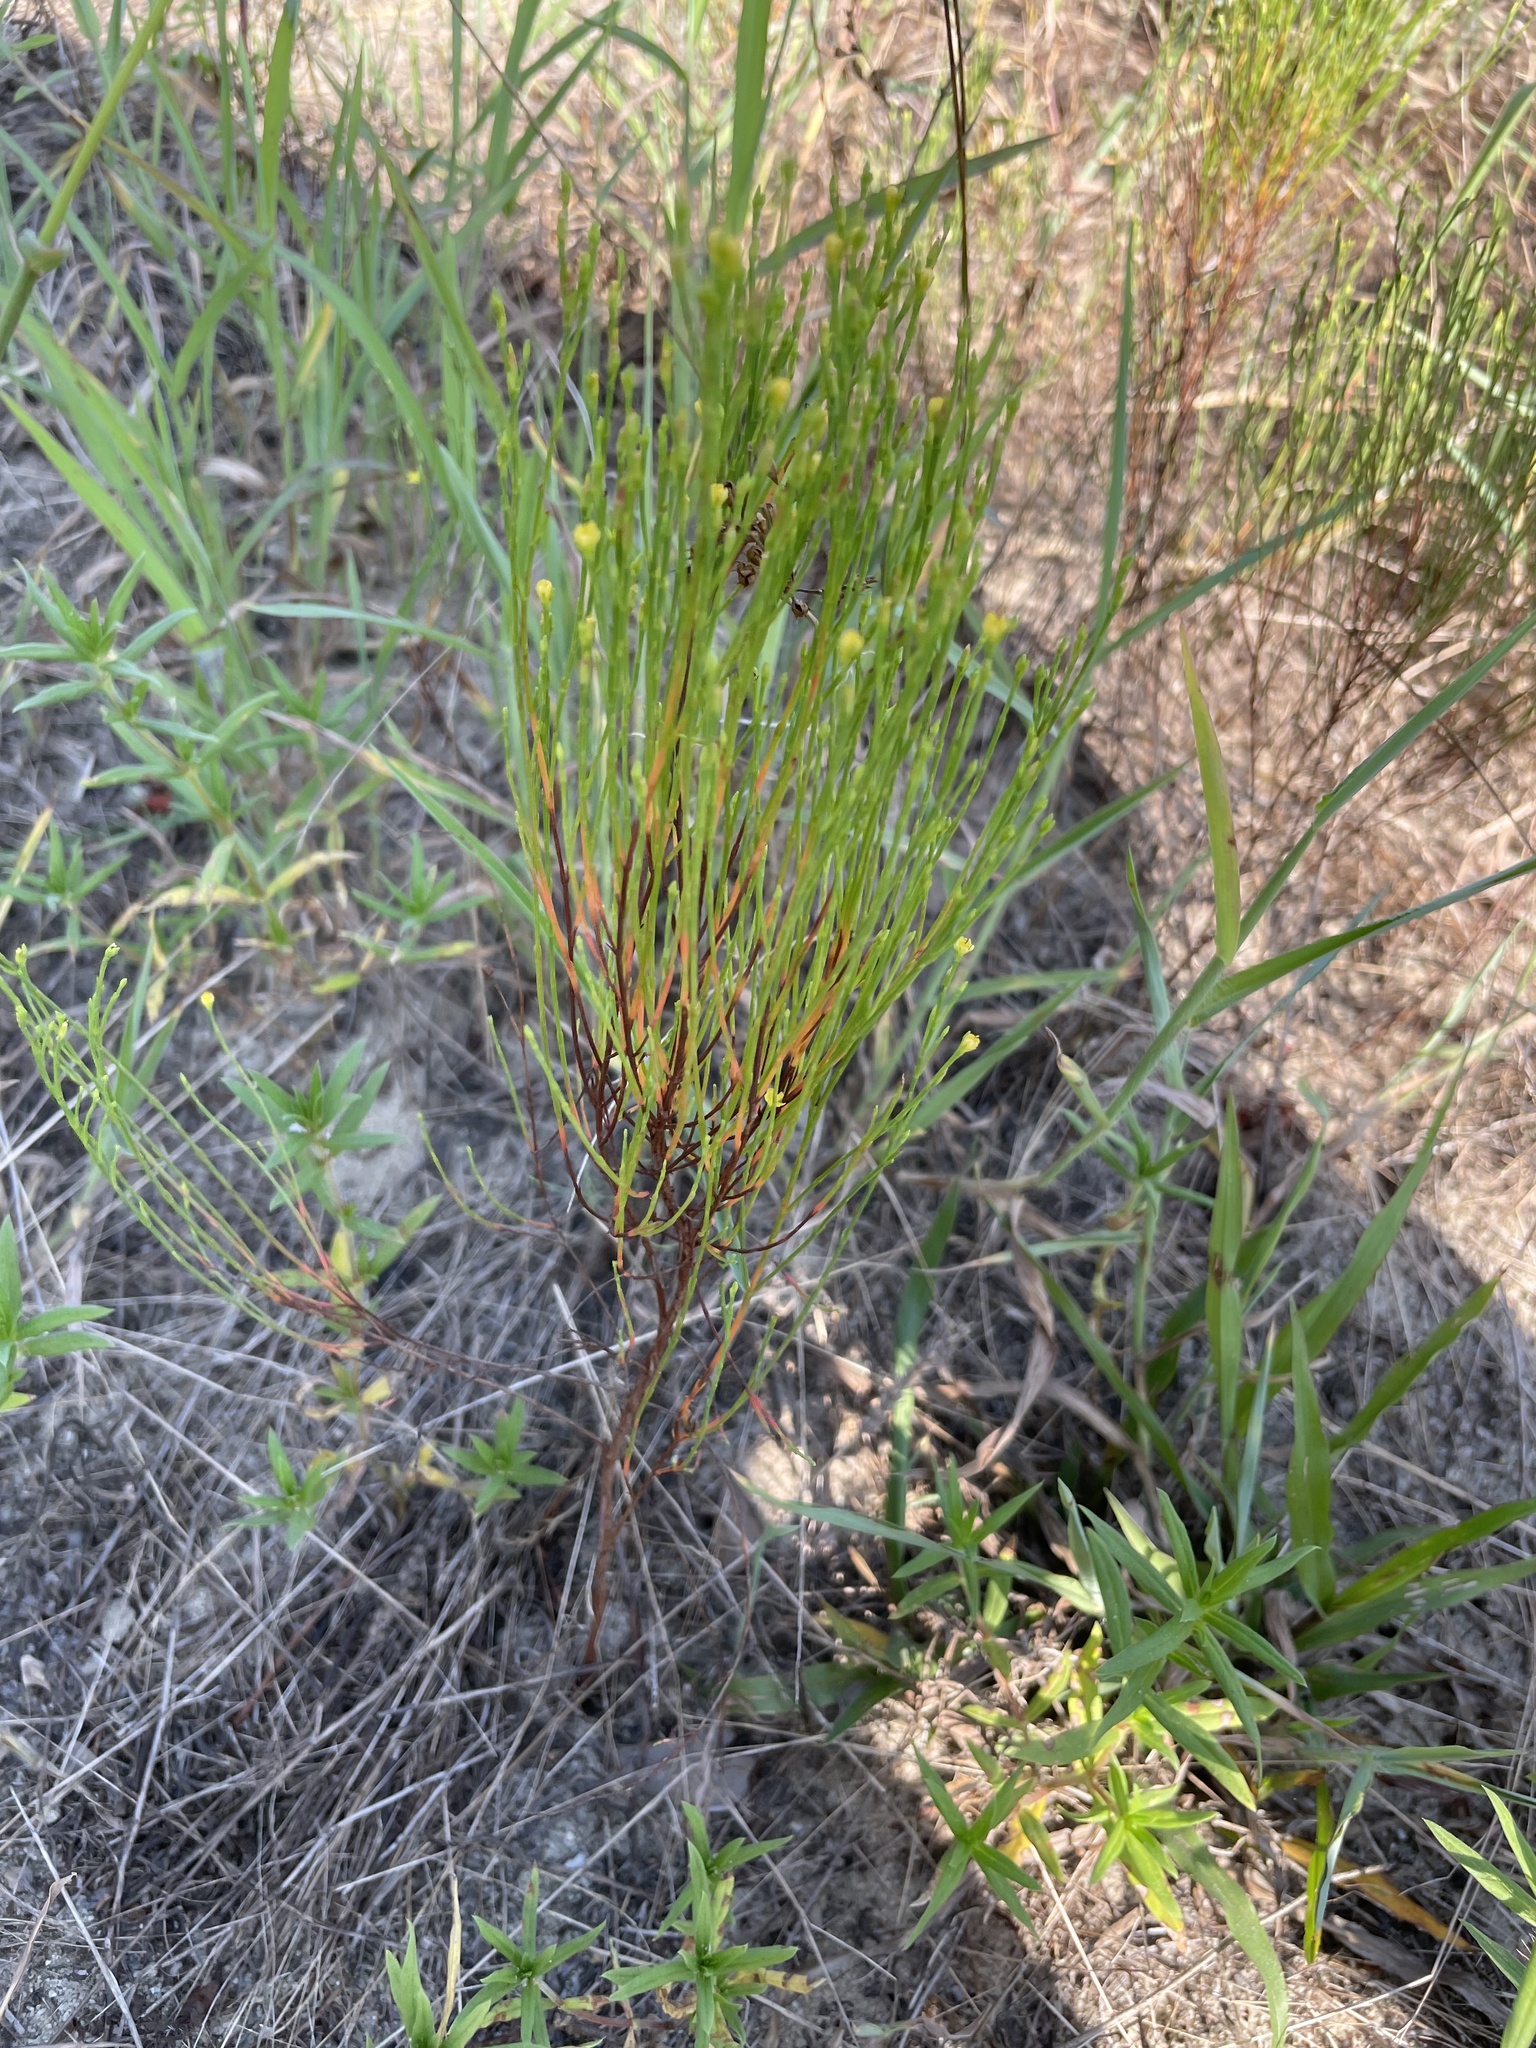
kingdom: Plantae
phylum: Tracheophyta
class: Magnoliopsida
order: Malpighiales
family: Hypericaceae
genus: Hypericum
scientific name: Hypericum gentianoides
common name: Gentian-leaved st. john's-wort
